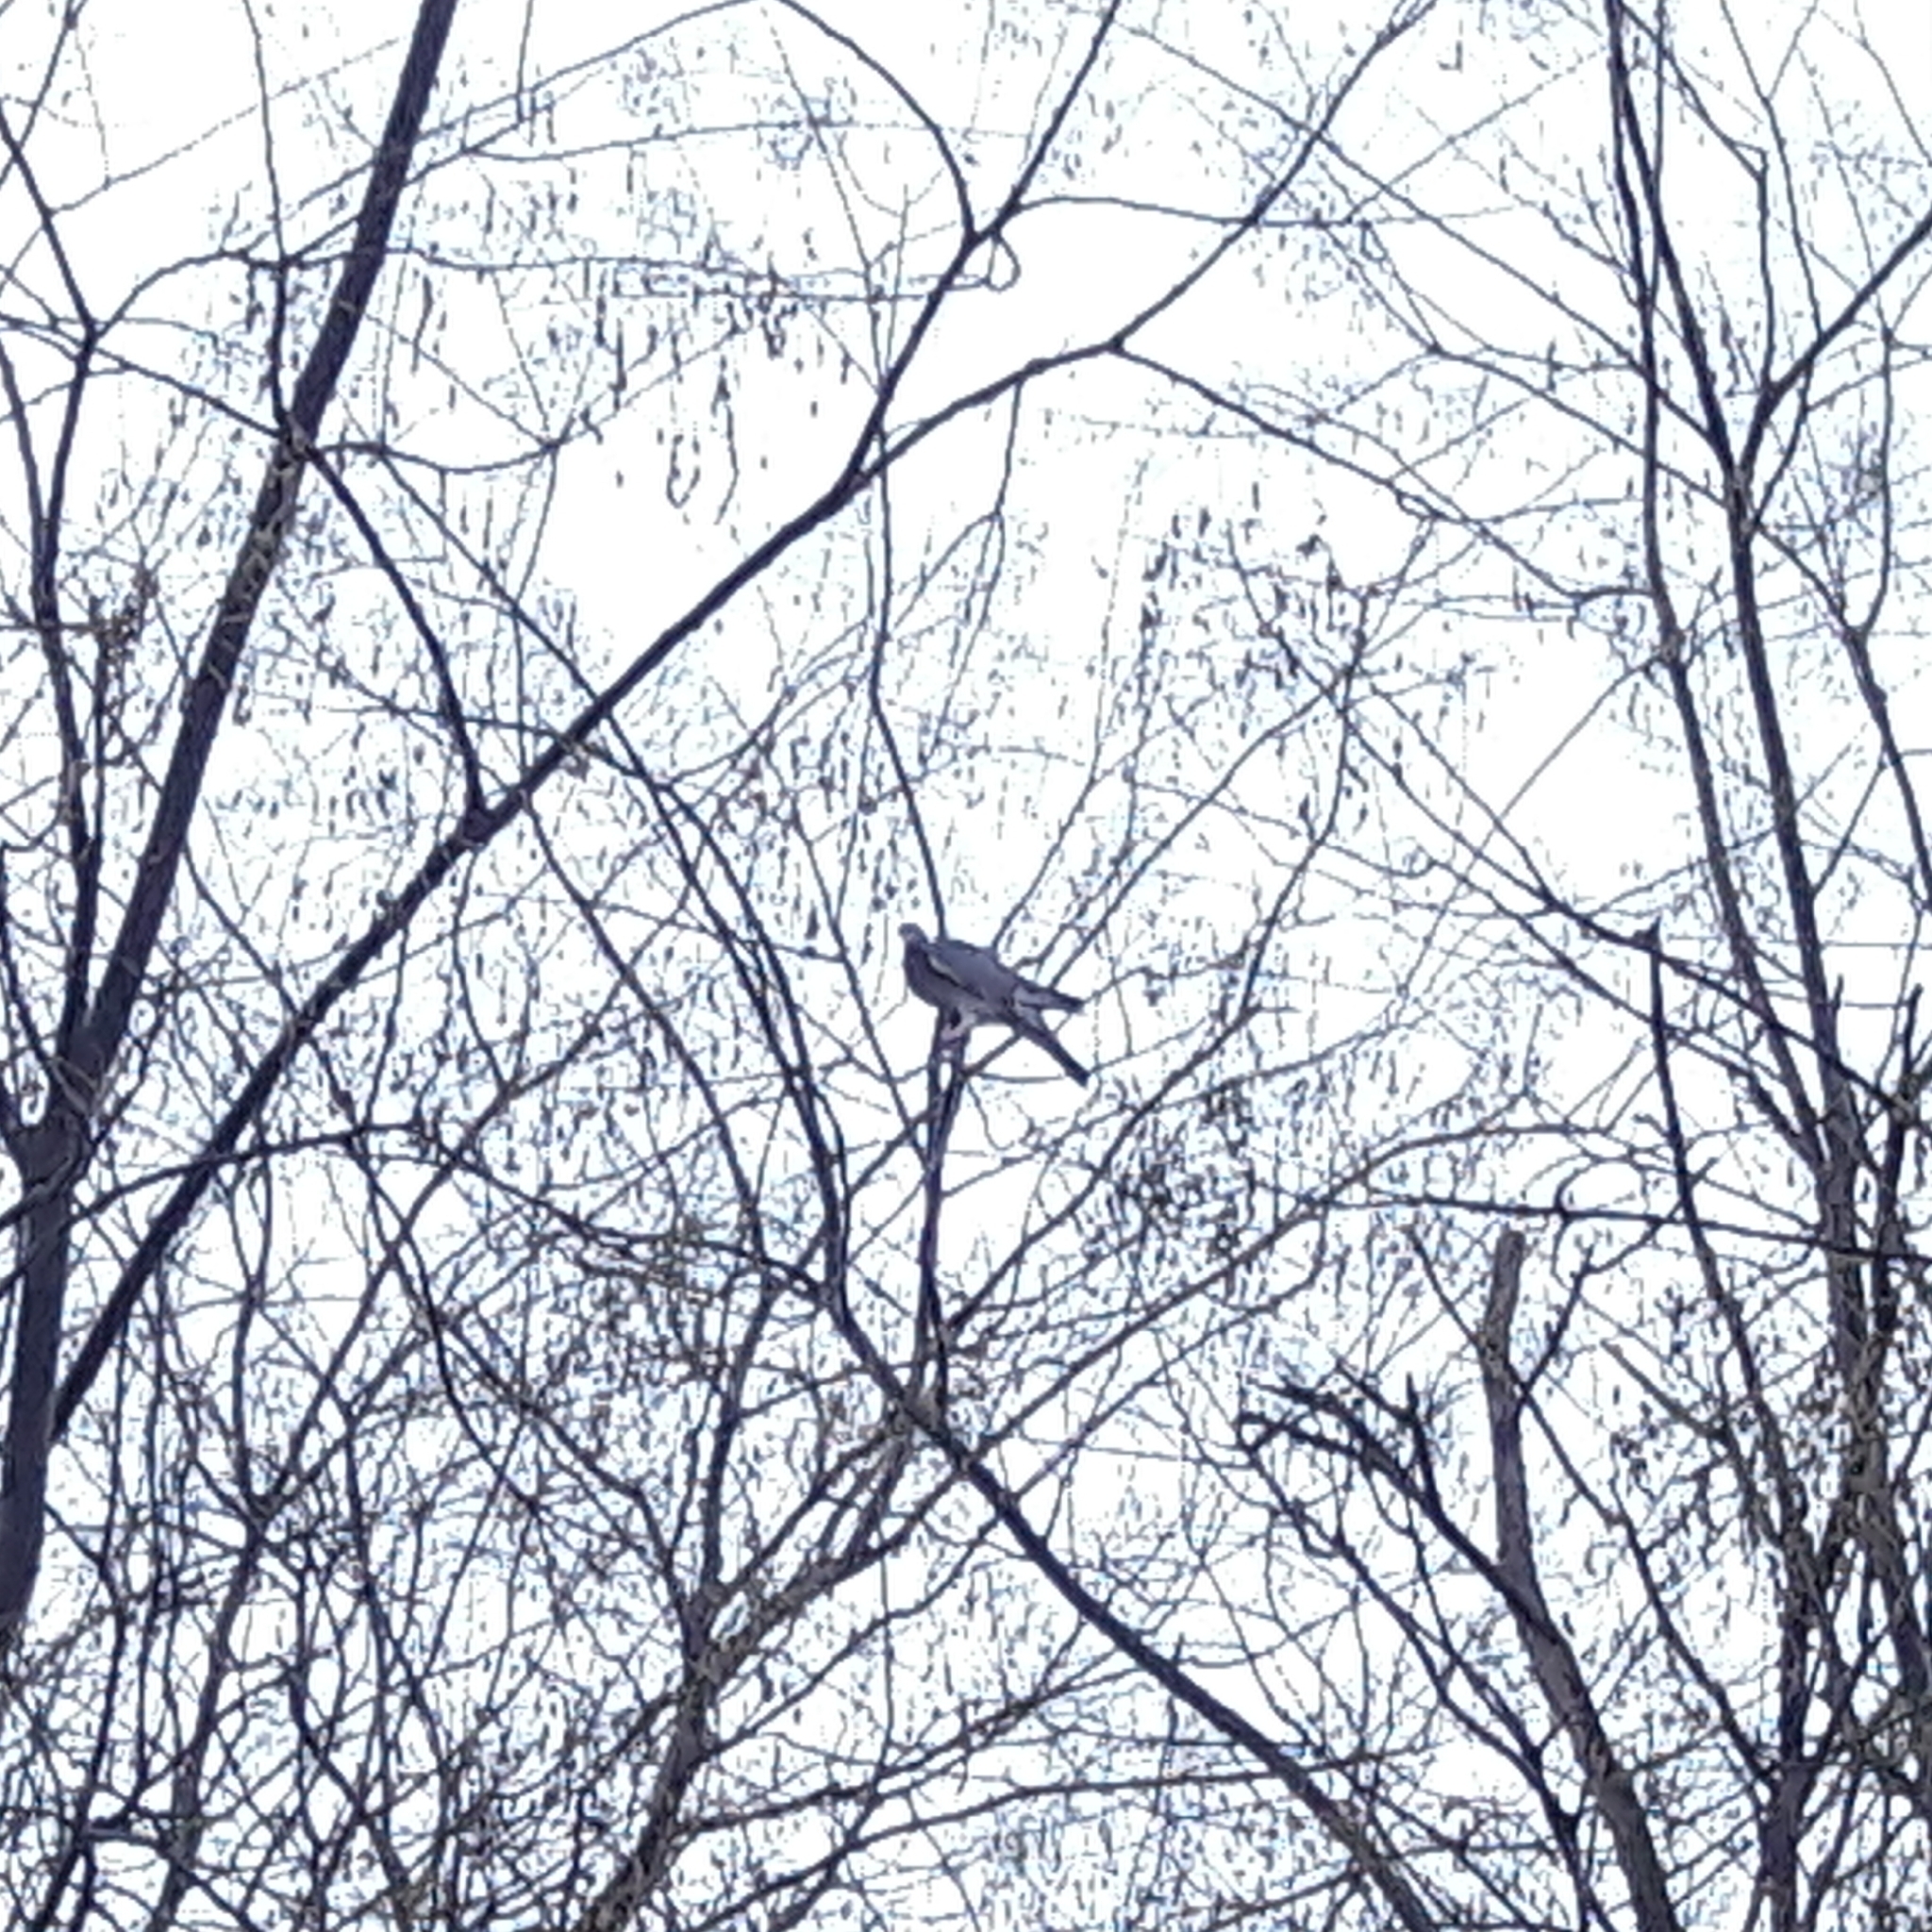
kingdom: Animalia
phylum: Chordata
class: Aves
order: Columbiformes
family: Columbidae
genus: Columba
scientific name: Columba palumbus
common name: Common wood pigeon
